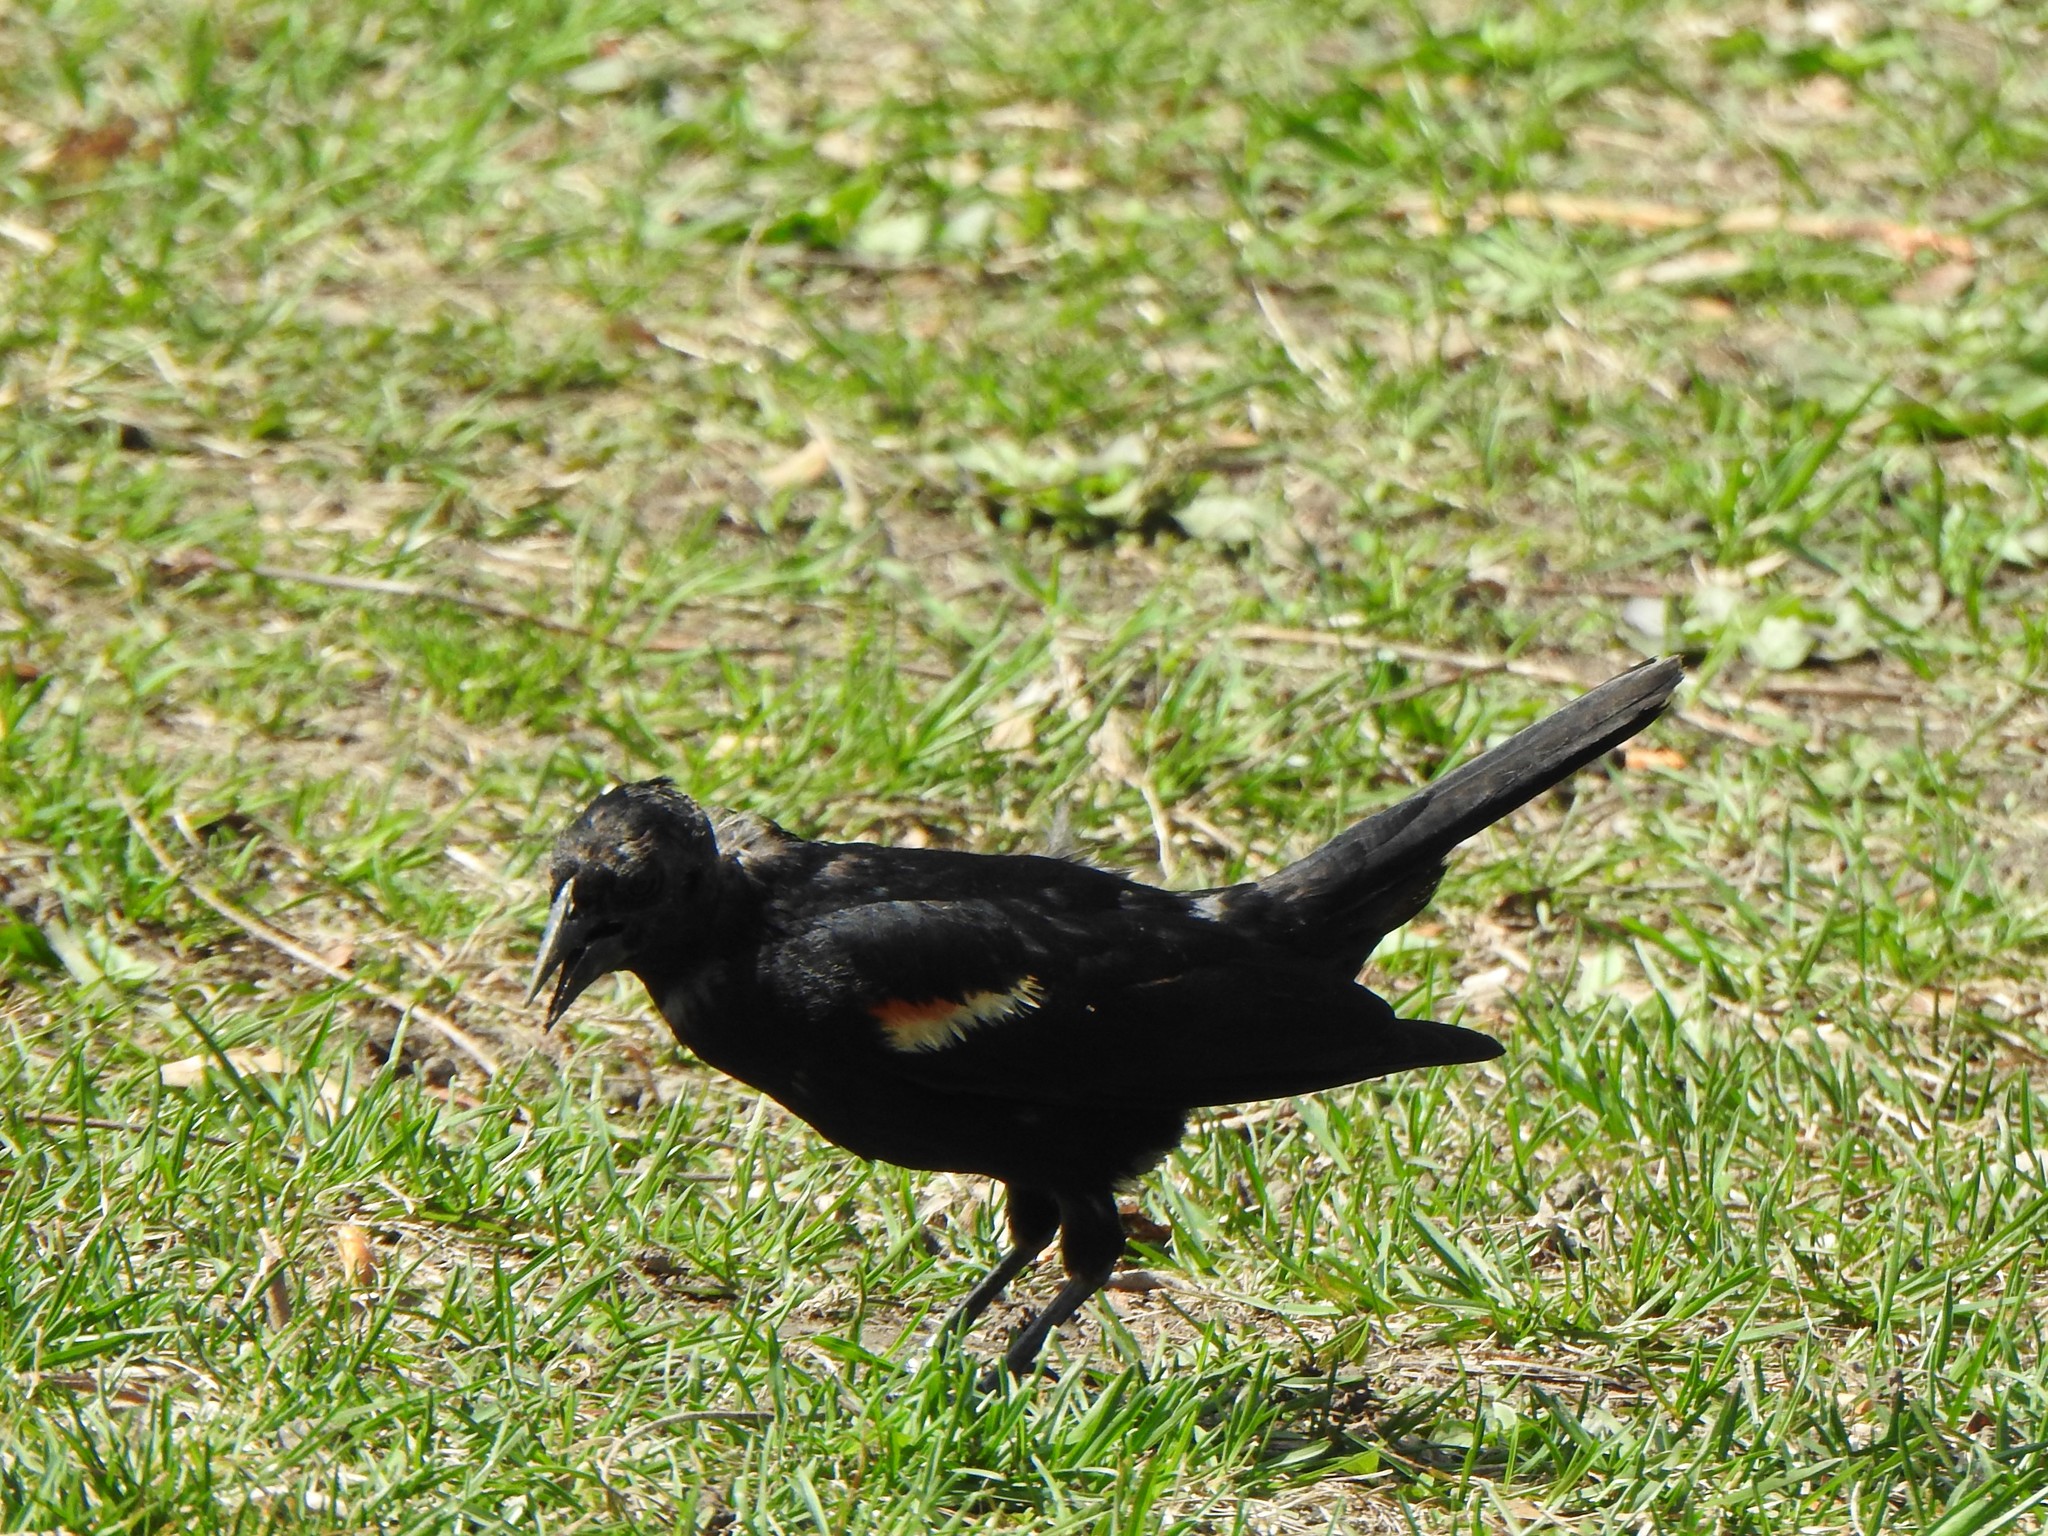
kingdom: Animalia
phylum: Chordata
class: Aves
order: Passeriformes
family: Icteridae
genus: Agelaius
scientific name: Agelaius phoeniceus
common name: Red-winged blackbird
